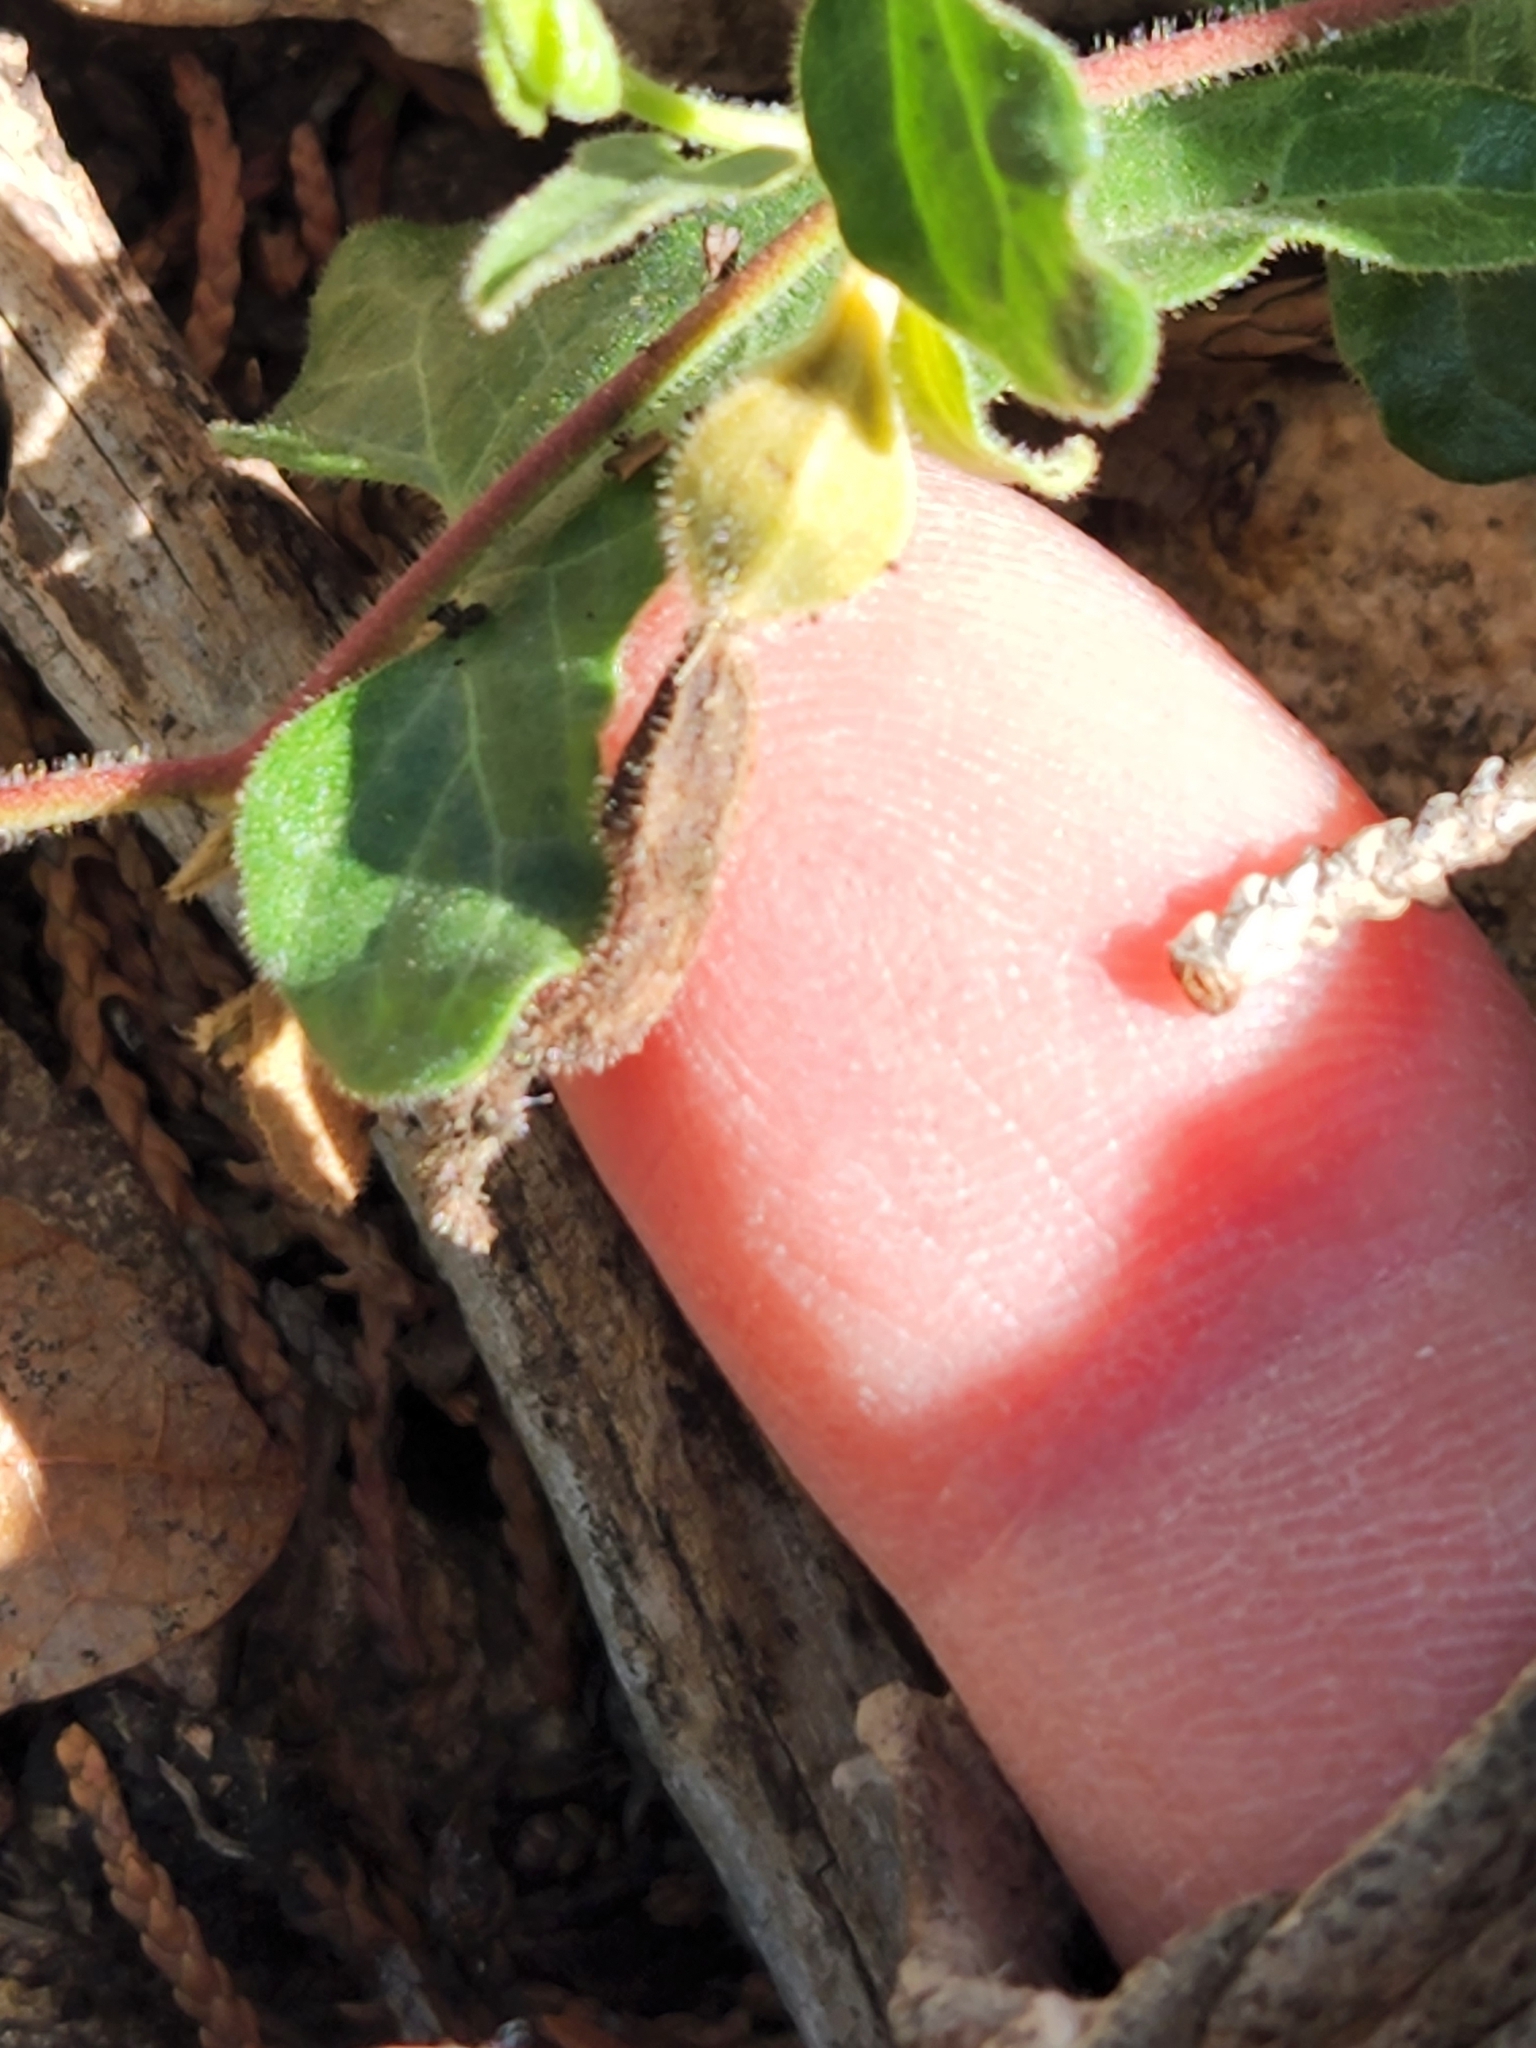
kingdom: Plantae
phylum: Tracheophyta
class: Magnoliopsida
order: Piperales
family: Aristolochiaceae
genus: Aristolochia
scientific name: Aristolochia coryi
